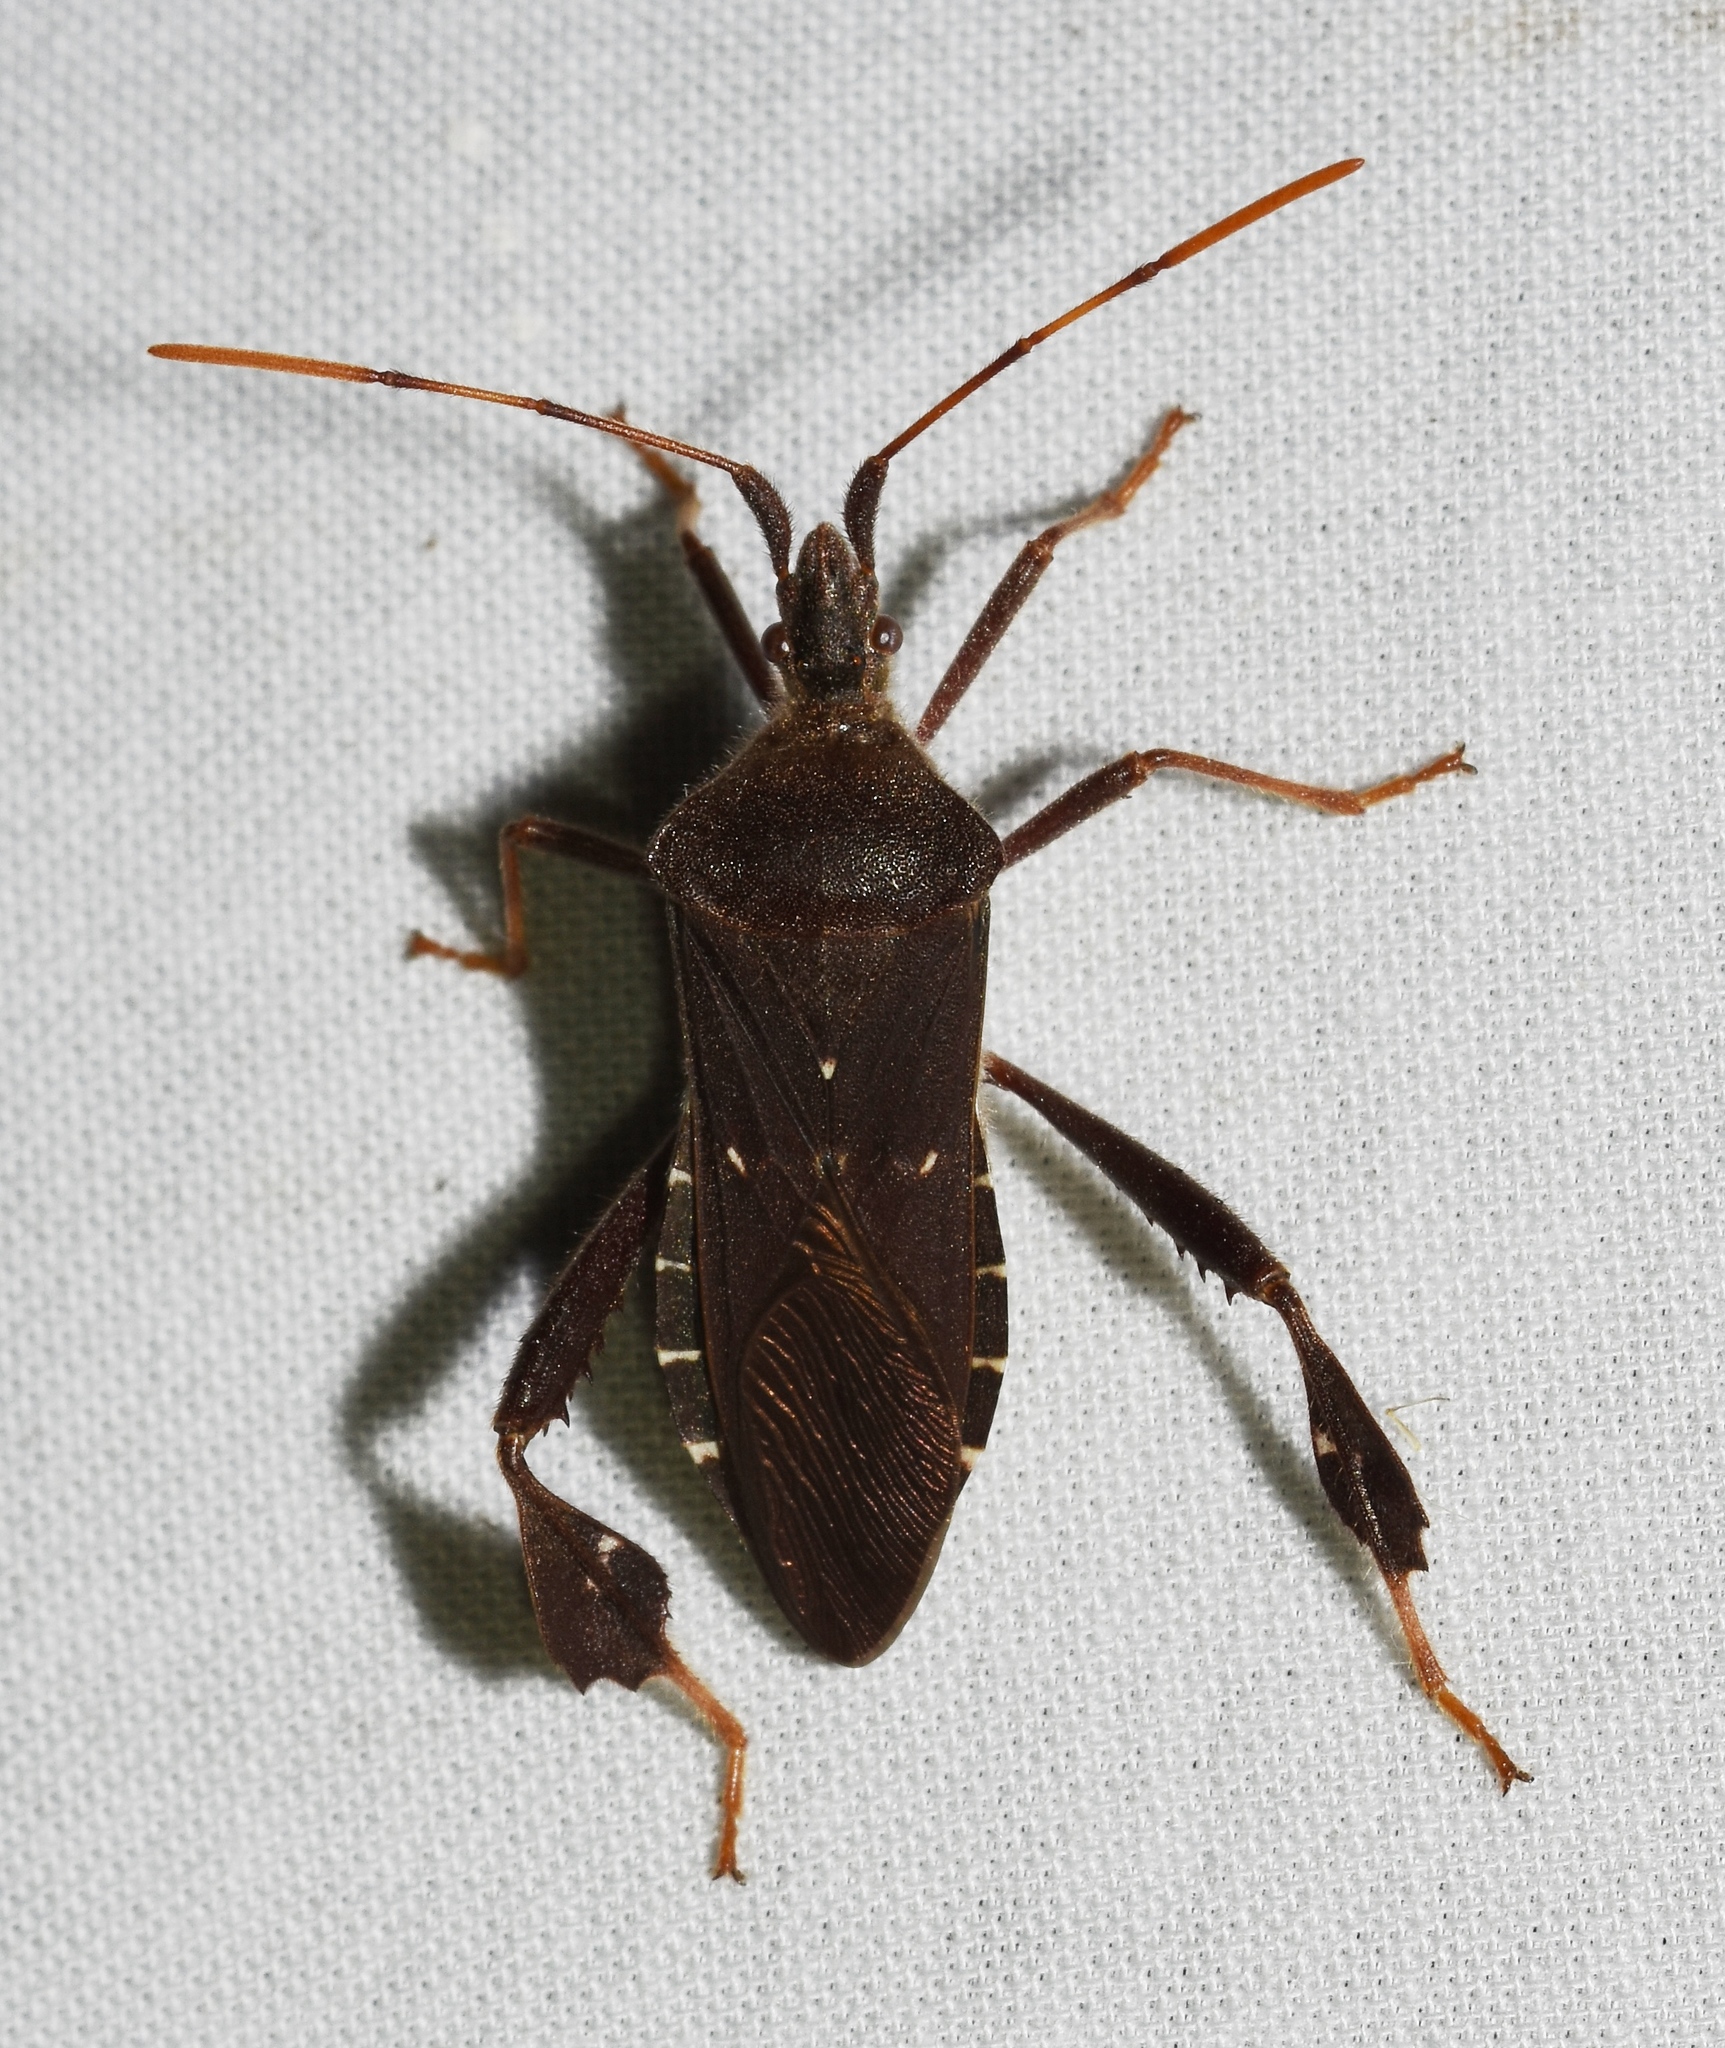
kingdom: Animalia
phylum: Arthropoda
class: Insecta
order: Hemiptera
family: Coreidae
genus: Leptoglossus
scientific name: Leptoglossus oppositus
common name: Northern leaf-footed bug
